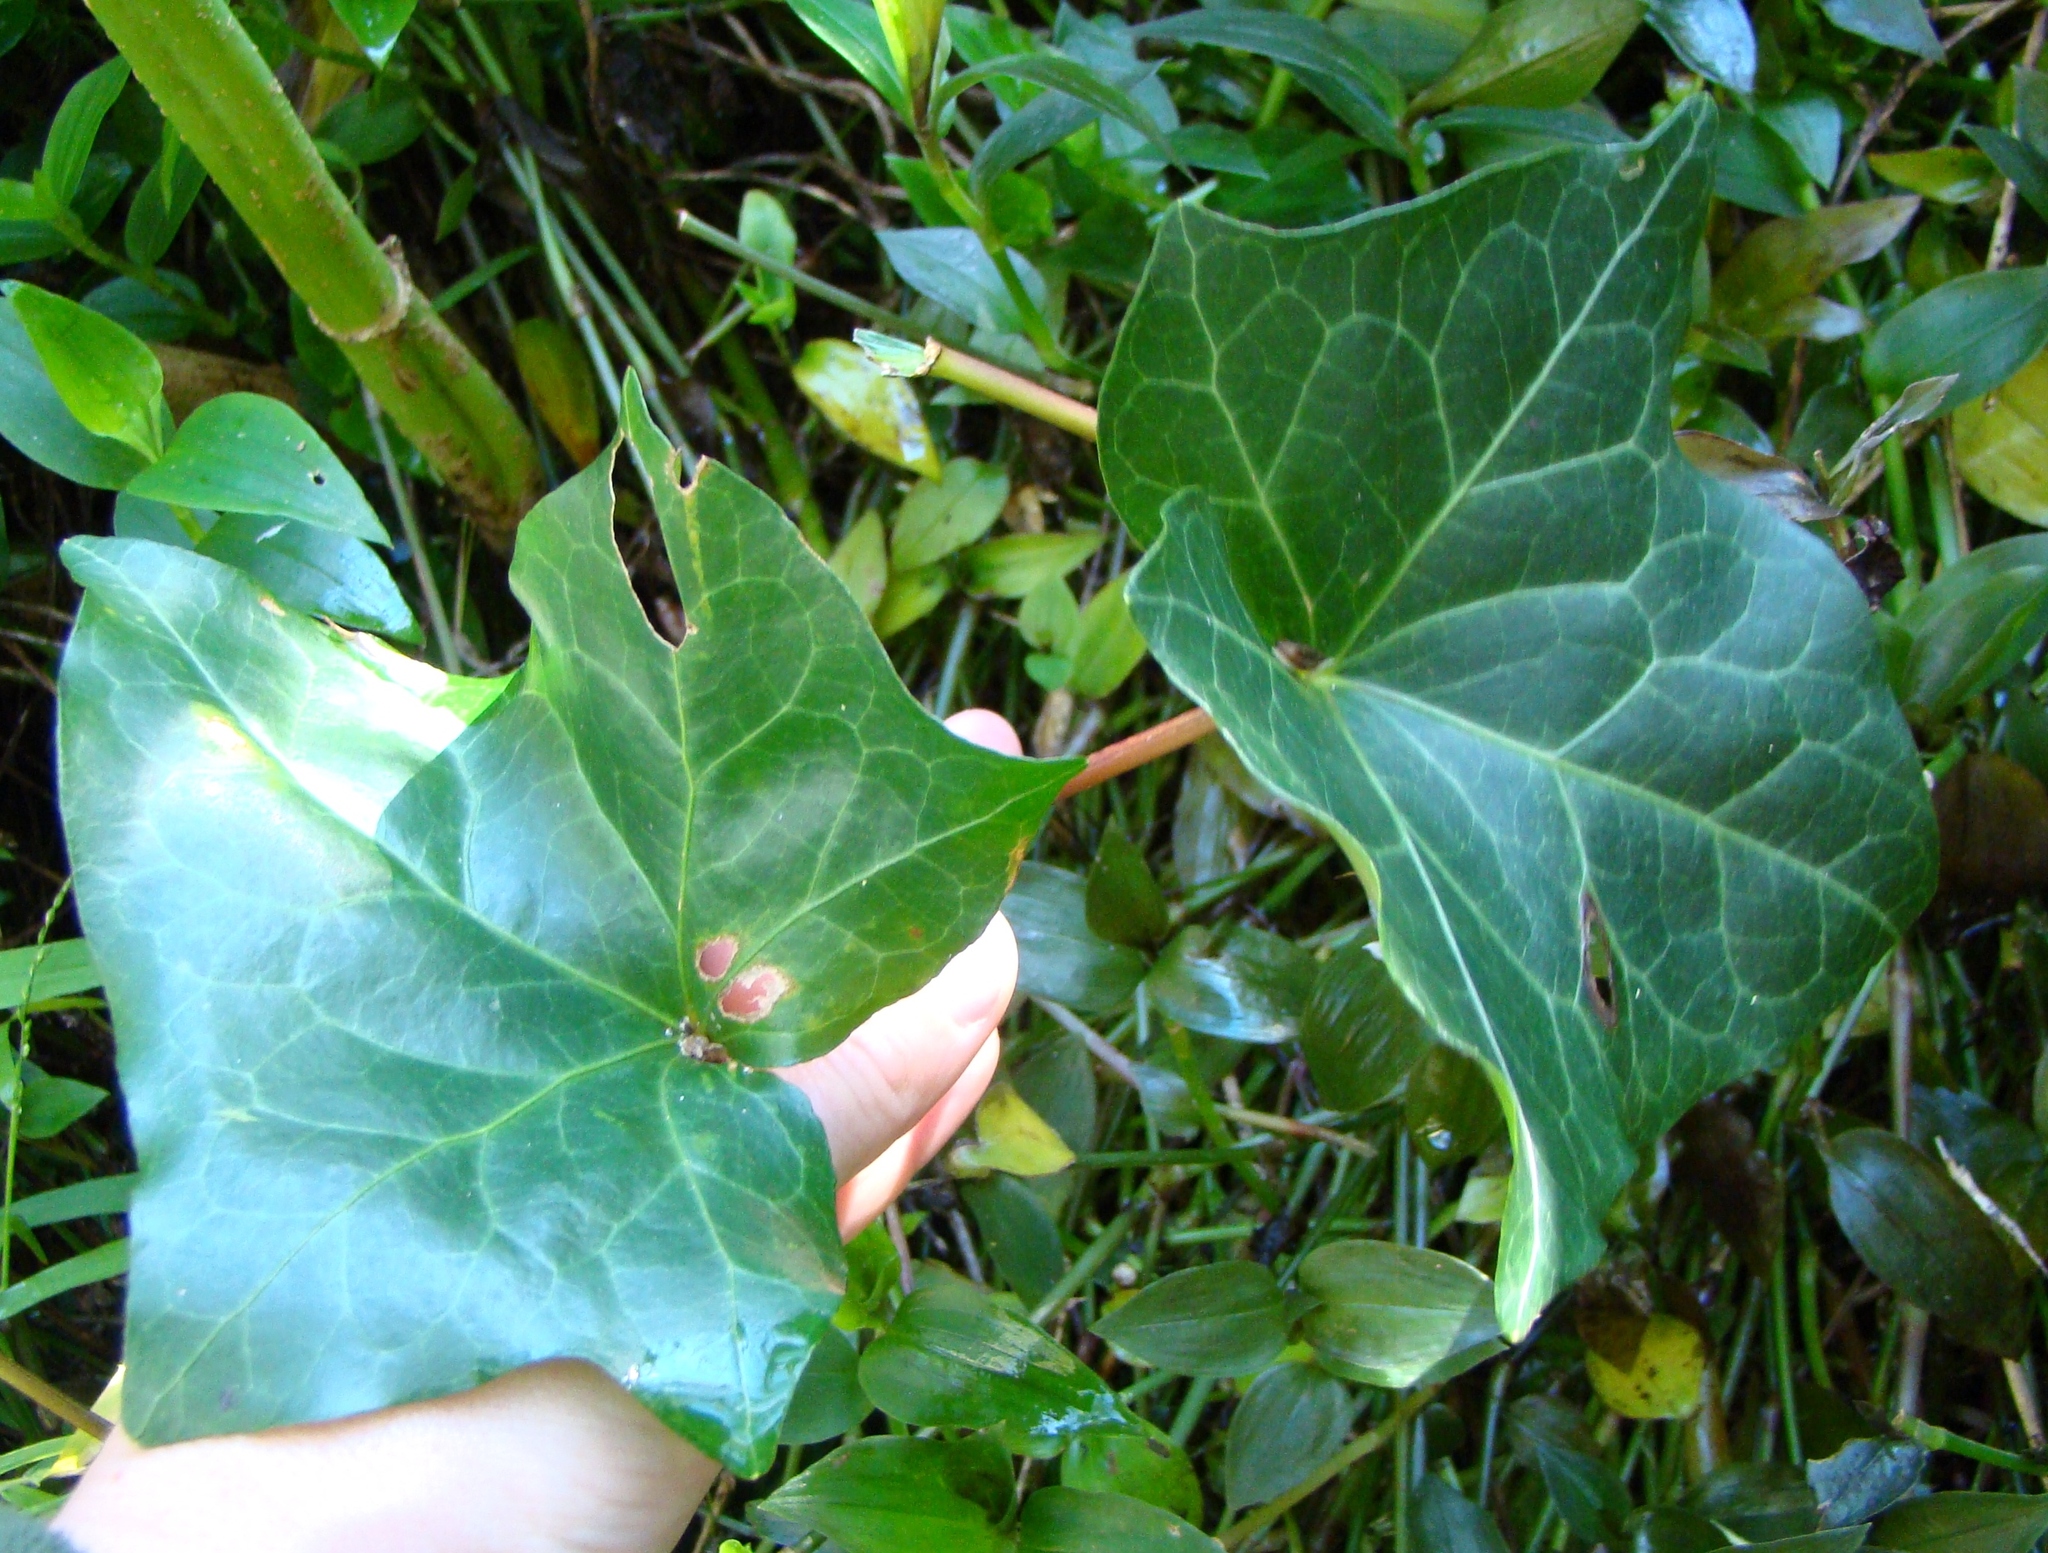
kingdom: Plantae
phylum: Tracheophyta
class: Magnoliopsida
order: Apiales
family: Araliaceae
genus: Hedera
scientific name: Hedera helix
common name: Ivy
